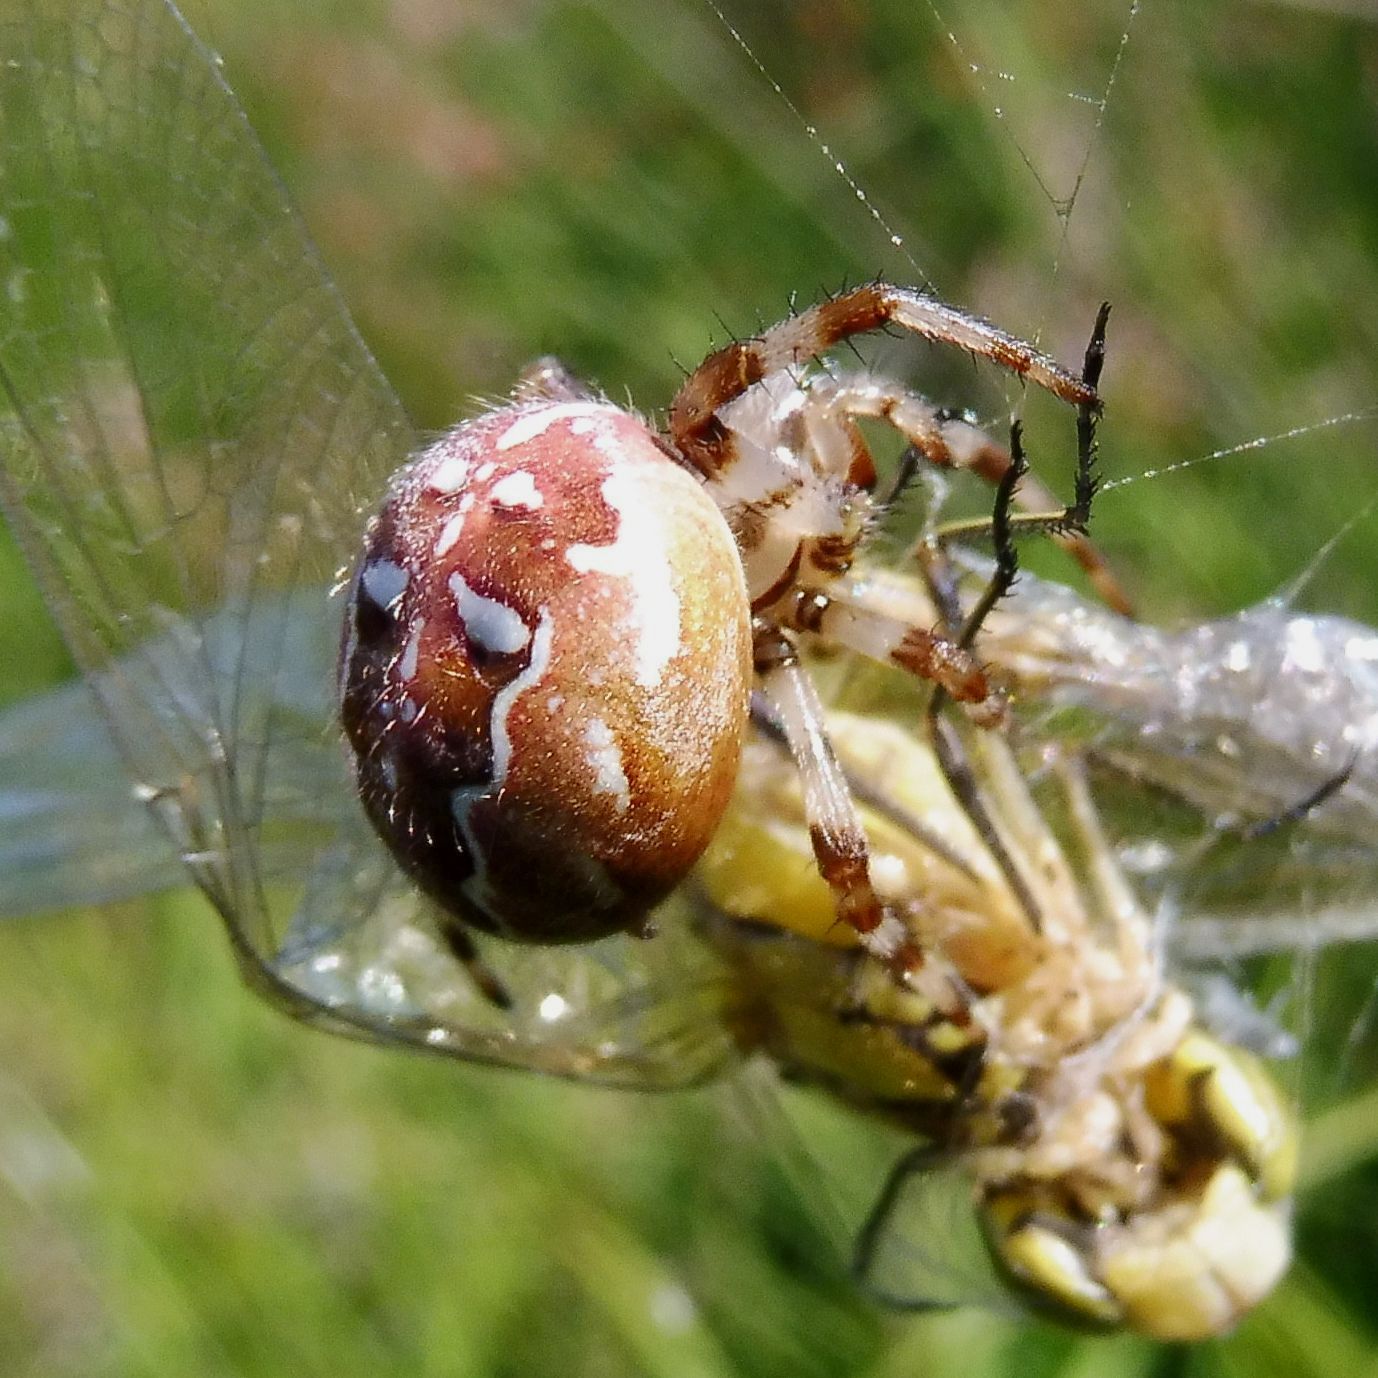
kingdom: Animalia
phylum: Arthropoda
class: Insecta
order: Odonata
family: Libellulidae
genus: Sympetrum
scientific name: Sympetrum striolatum
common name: Common darter
